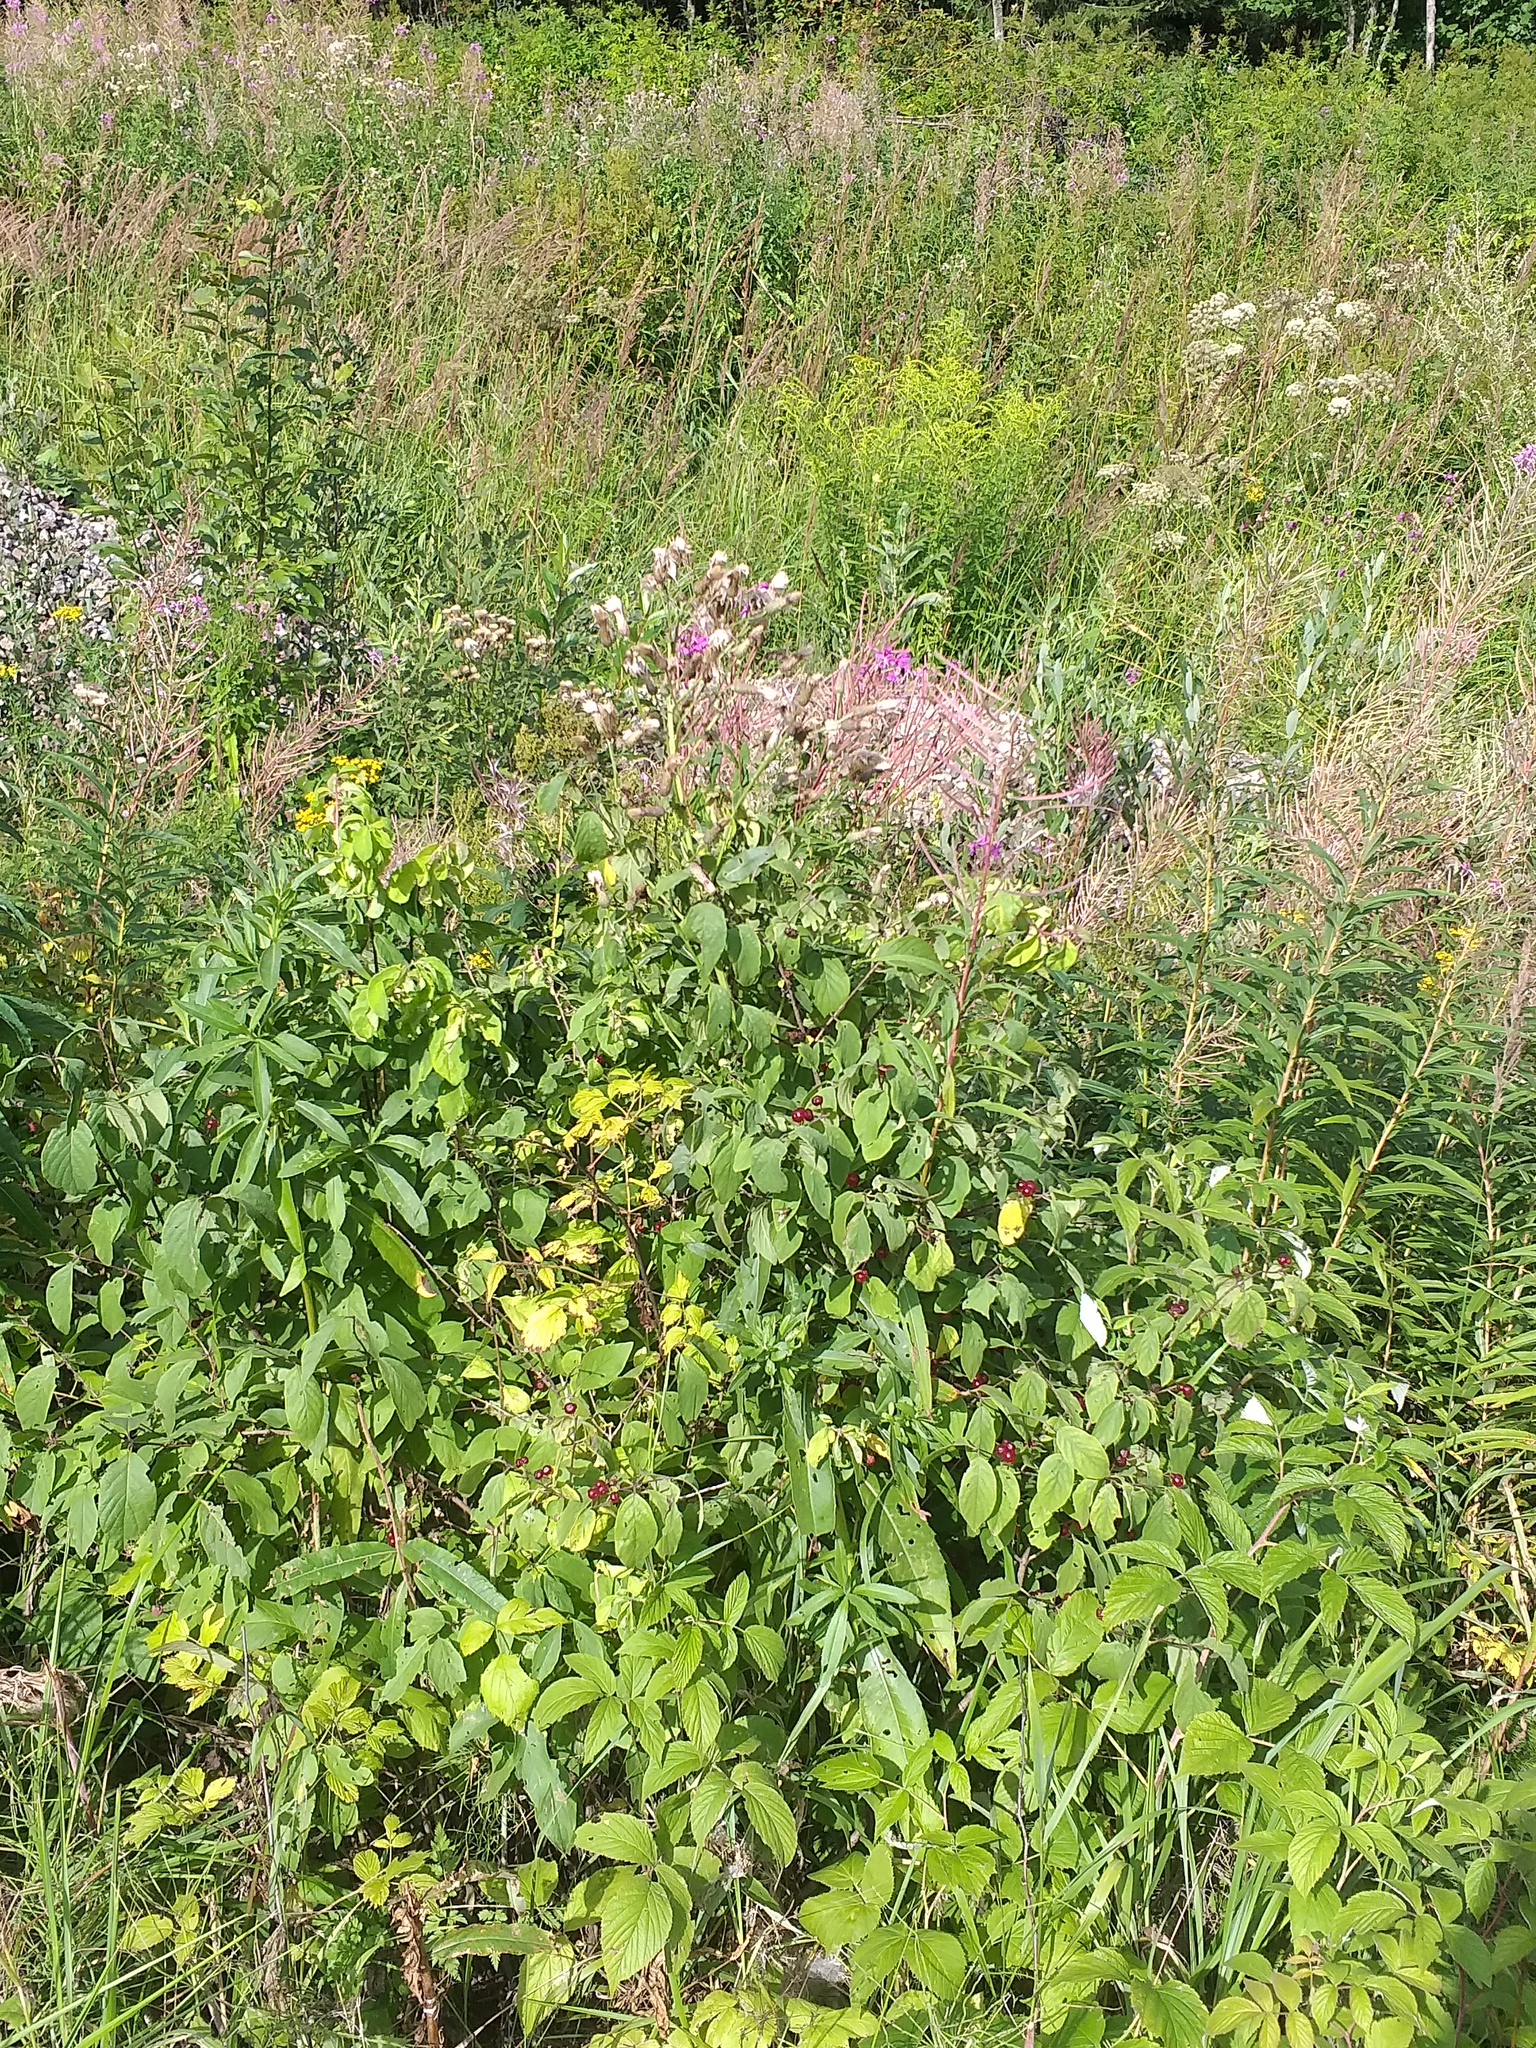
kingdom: Plantae
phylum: Tracheophyta
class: Magnoliopsida
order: Dipsacales
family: Caprifoliaceae
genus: Lonicera
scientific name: Lonicera xylosteum
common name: Fly honeysuckle
